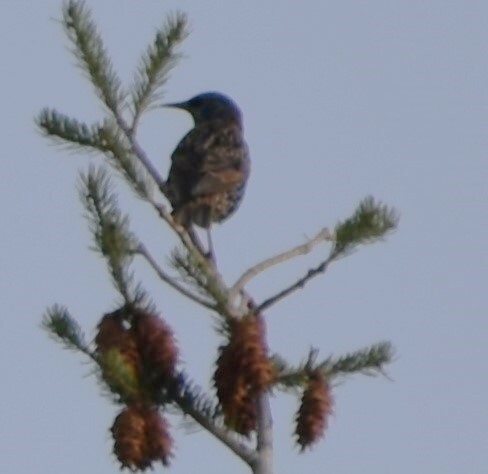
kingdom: Animalia
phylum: Chordata
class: Aves
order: Passeriformes
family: Sturnidae
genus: Sturnus
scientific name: Sturnus vulgaris
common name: Common starling
